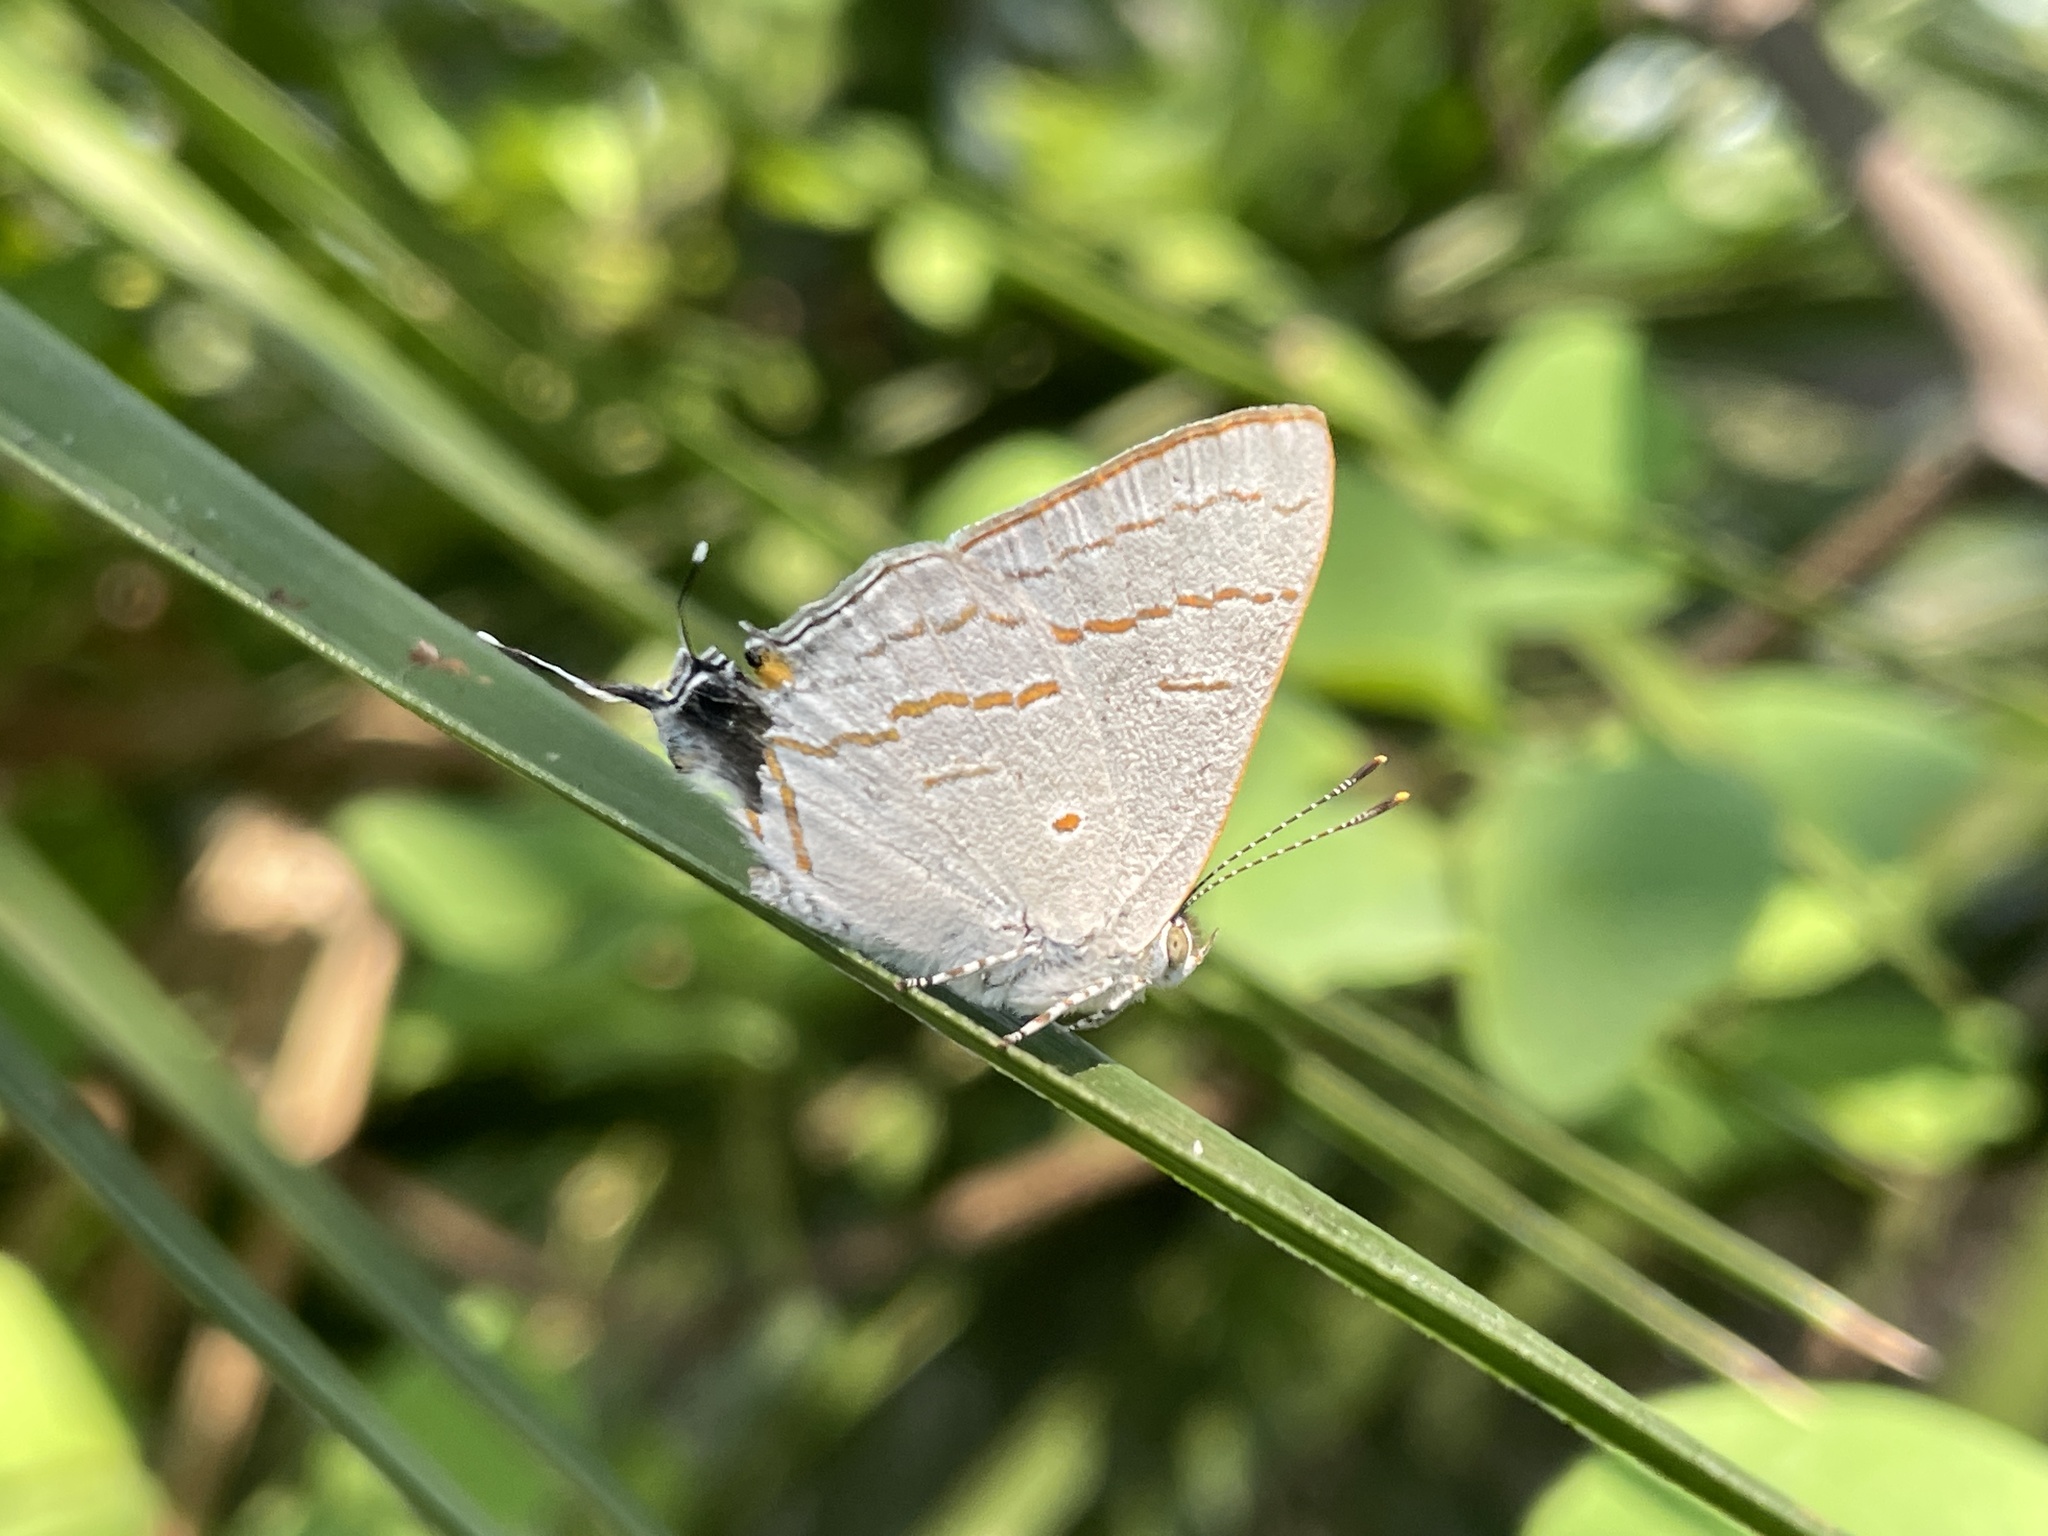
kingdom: Animalia
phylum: Arthropoda
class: Insecta
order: Lepidoptera
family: Lycaenidae
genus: Hypolycaena
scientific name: Hypolycaena philippus
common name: Common hairstreak
